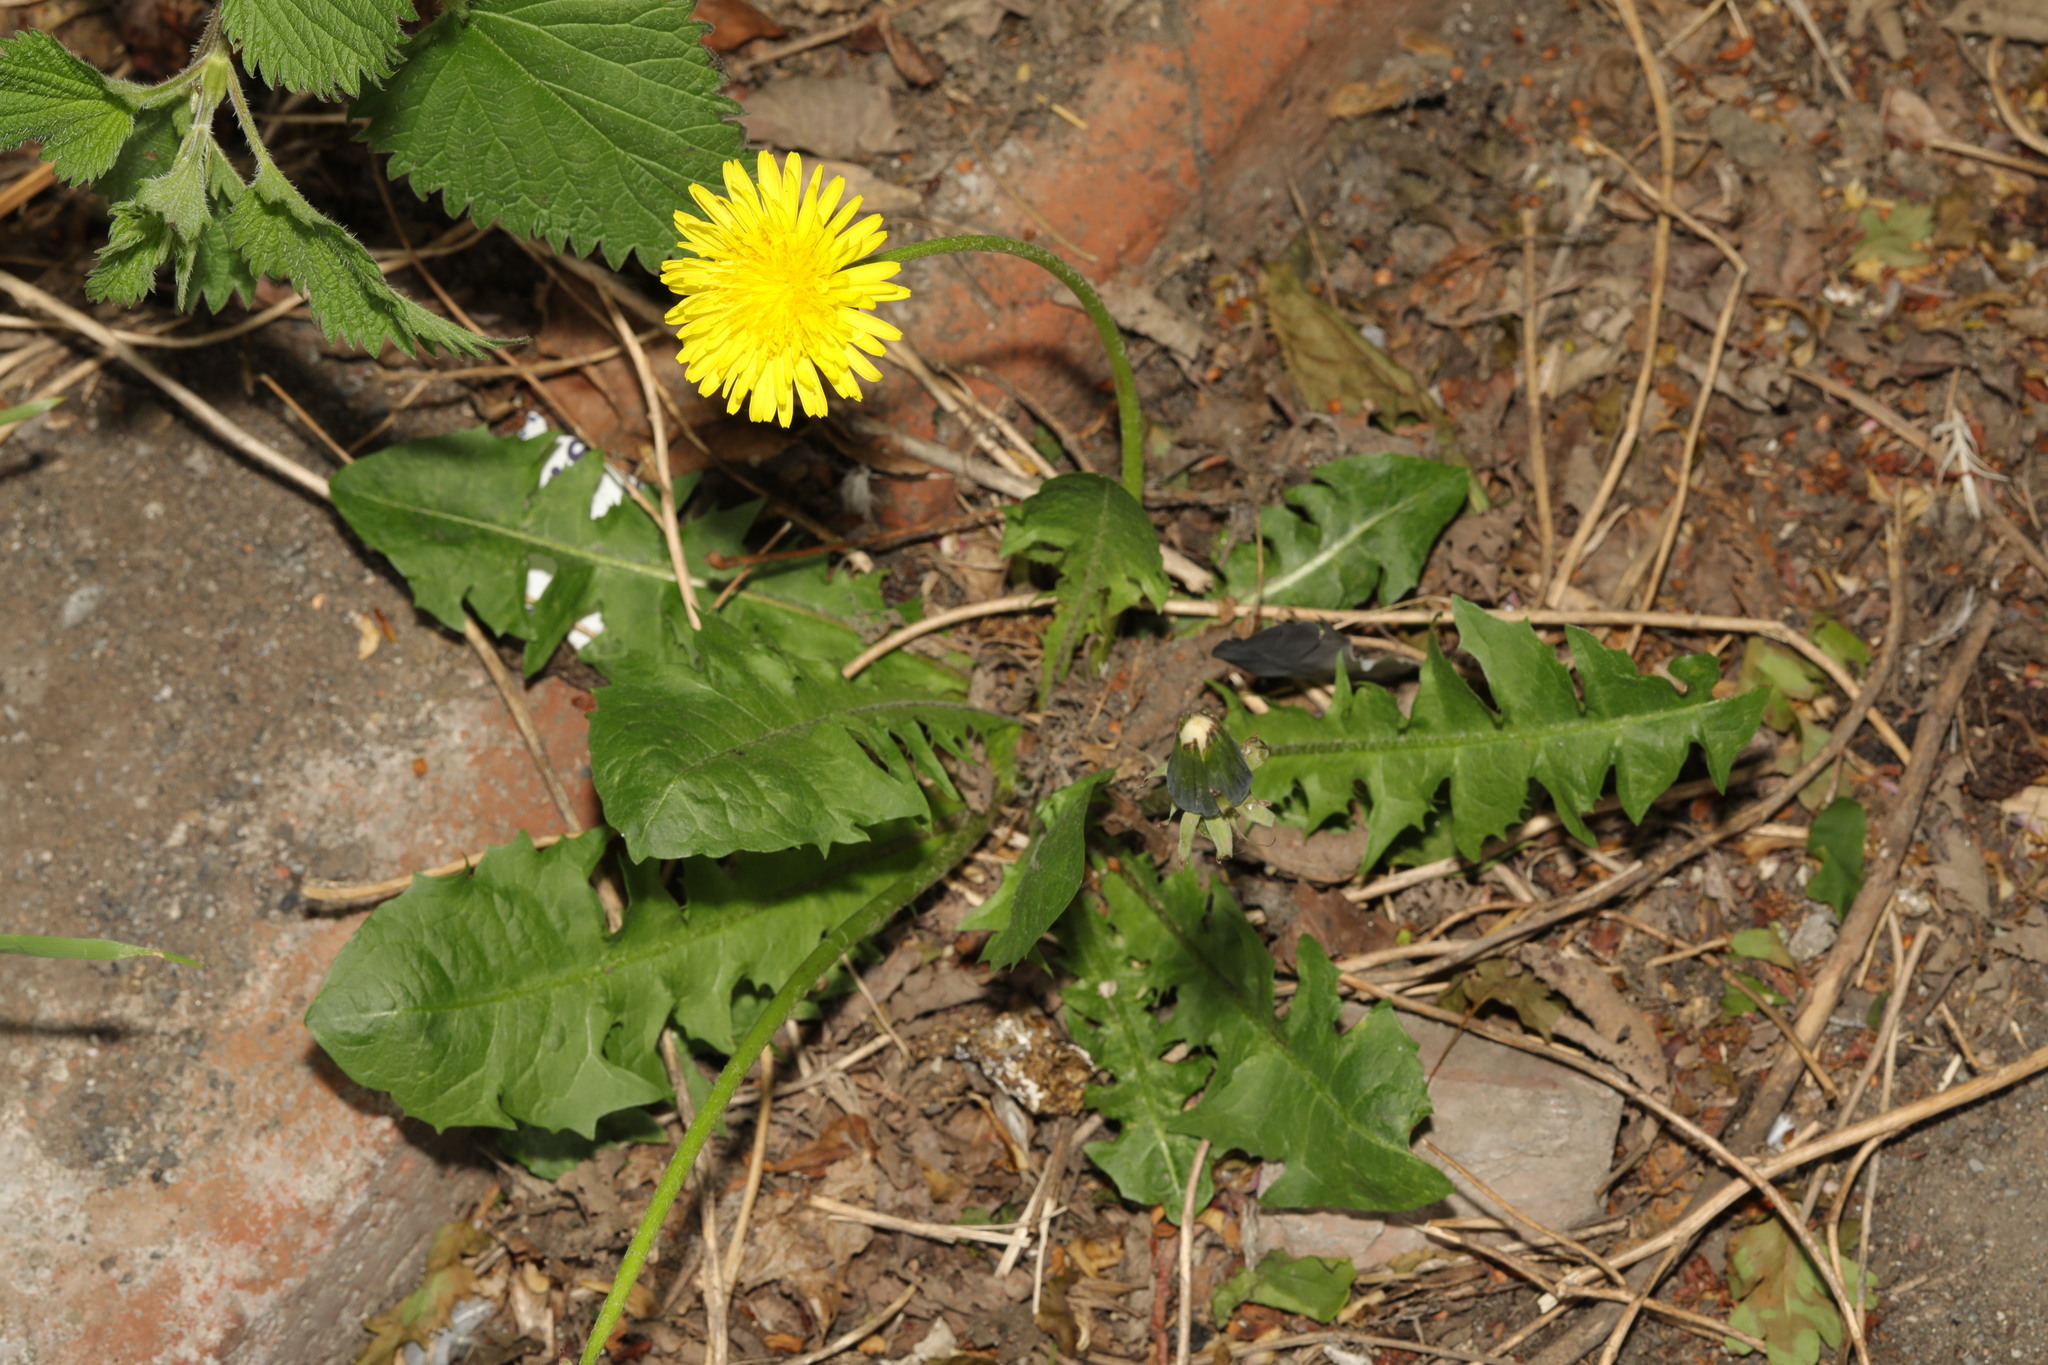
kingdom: Plantae
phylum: Tracheophyta
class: Magnoliopsida
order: Asterales
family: Asteraceae
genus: Taraxacum
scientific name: Taraxacum officinale
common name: Common dandelion
